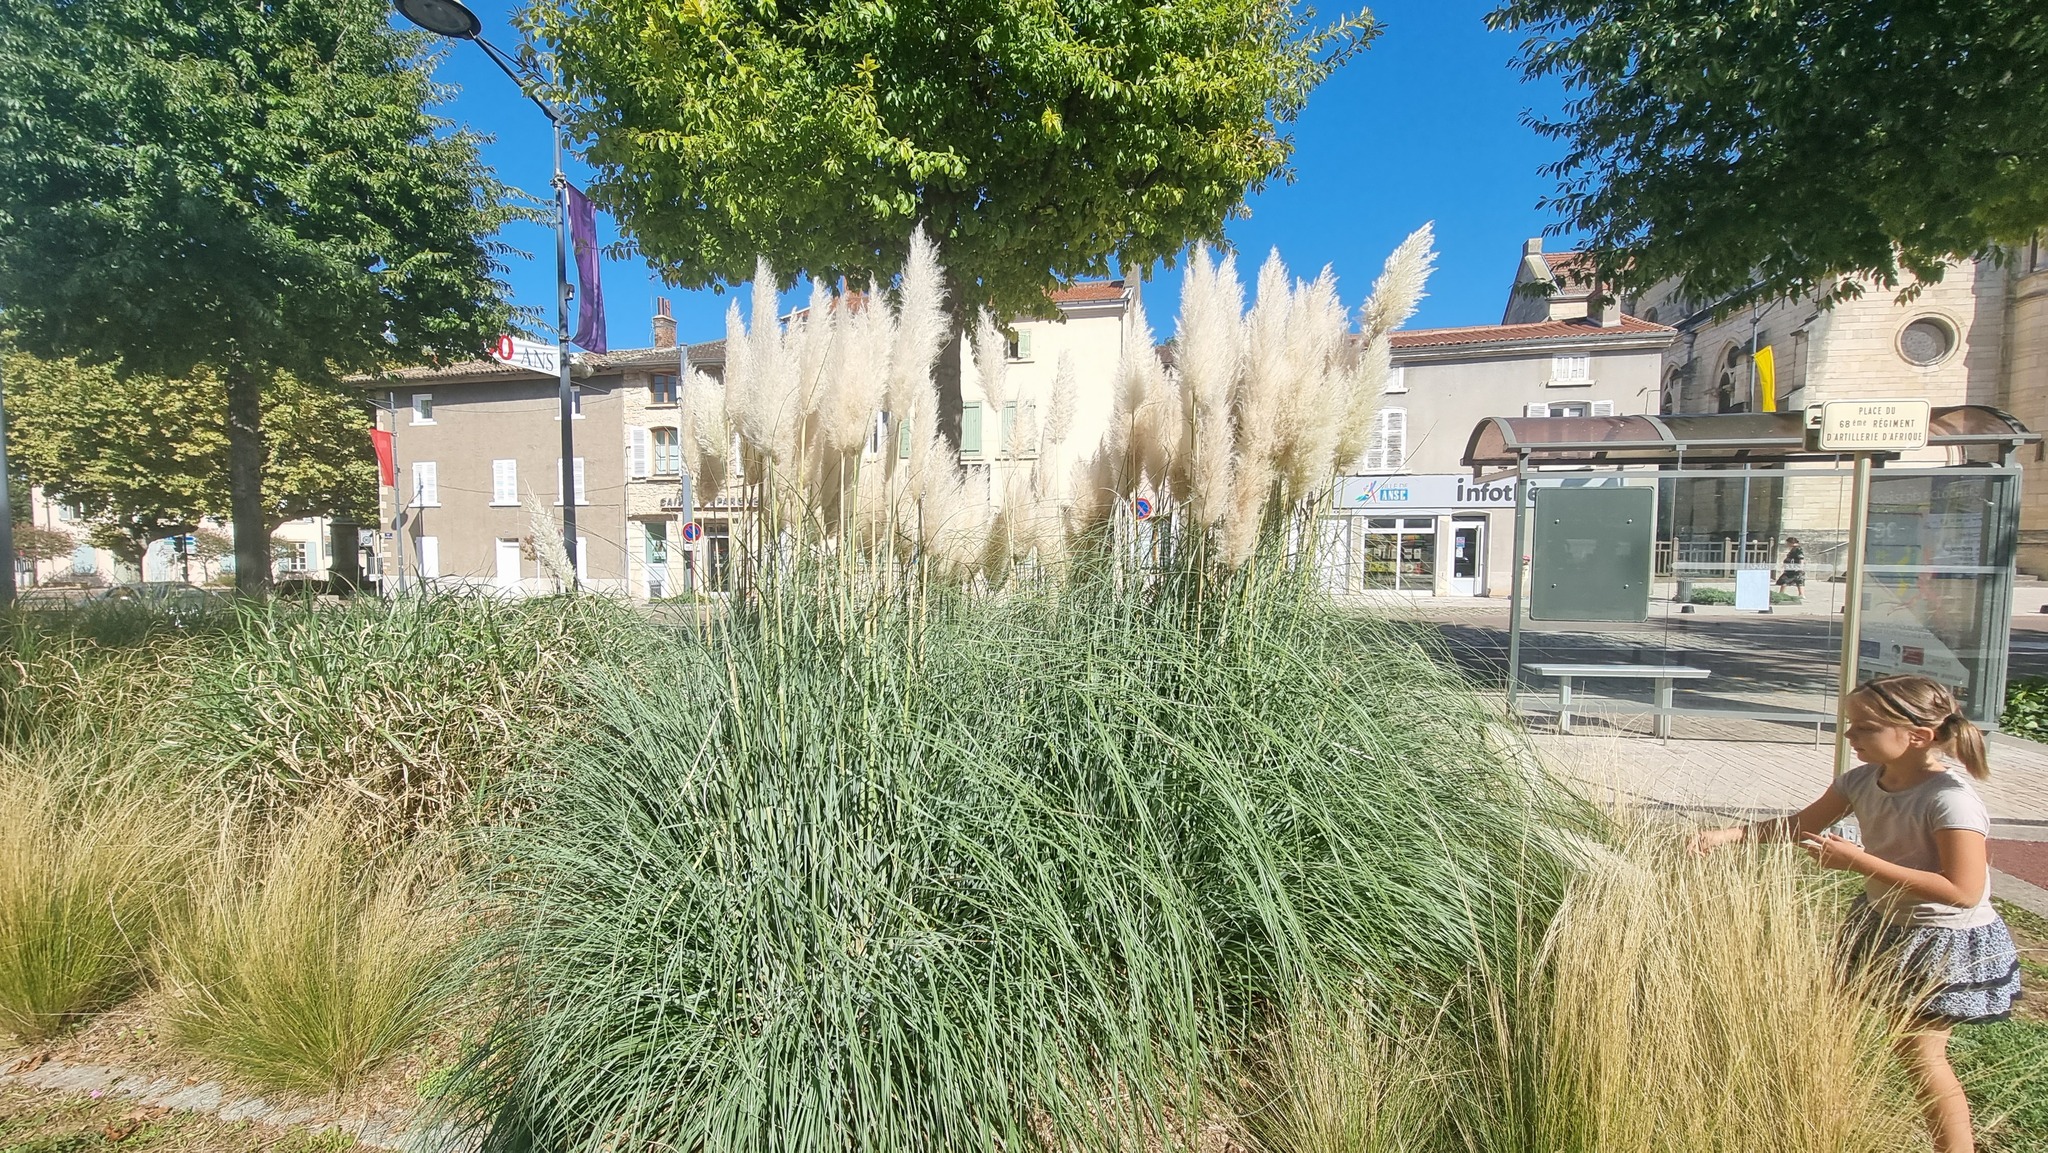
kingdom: Plantae
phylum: Tracheophyta
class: Liliopsida
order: Poales
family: Poaceae
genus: Cortaderia
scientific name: Cortaderia selloana
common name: Uruguayan pampas grass
